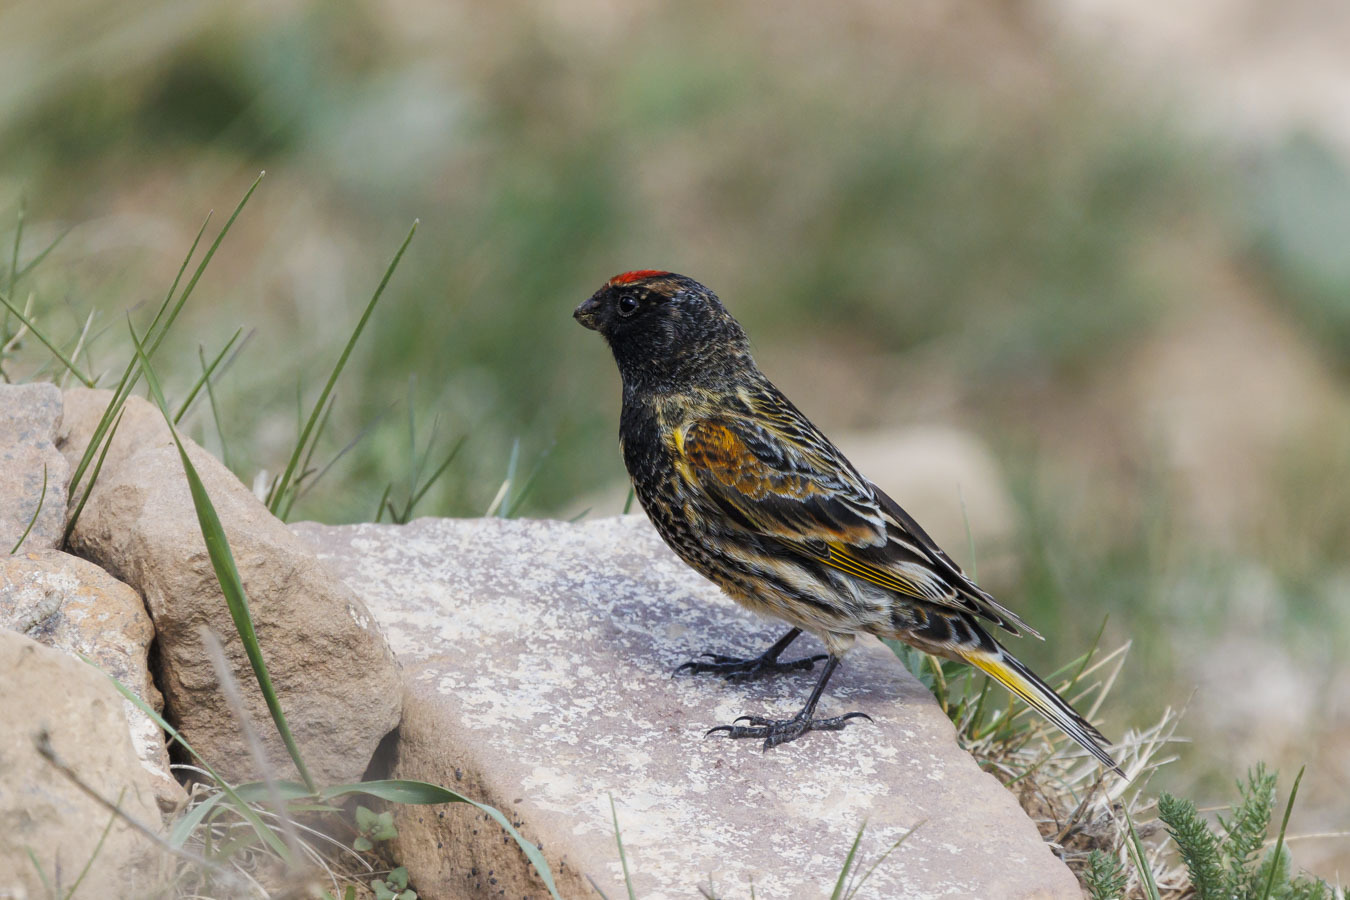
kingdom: Animalia
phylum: Chordata
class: Aves
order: Passeriformes
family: Fringillidae
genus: Serinus
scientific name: Serinus pusillus
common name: Red-fronted serin
